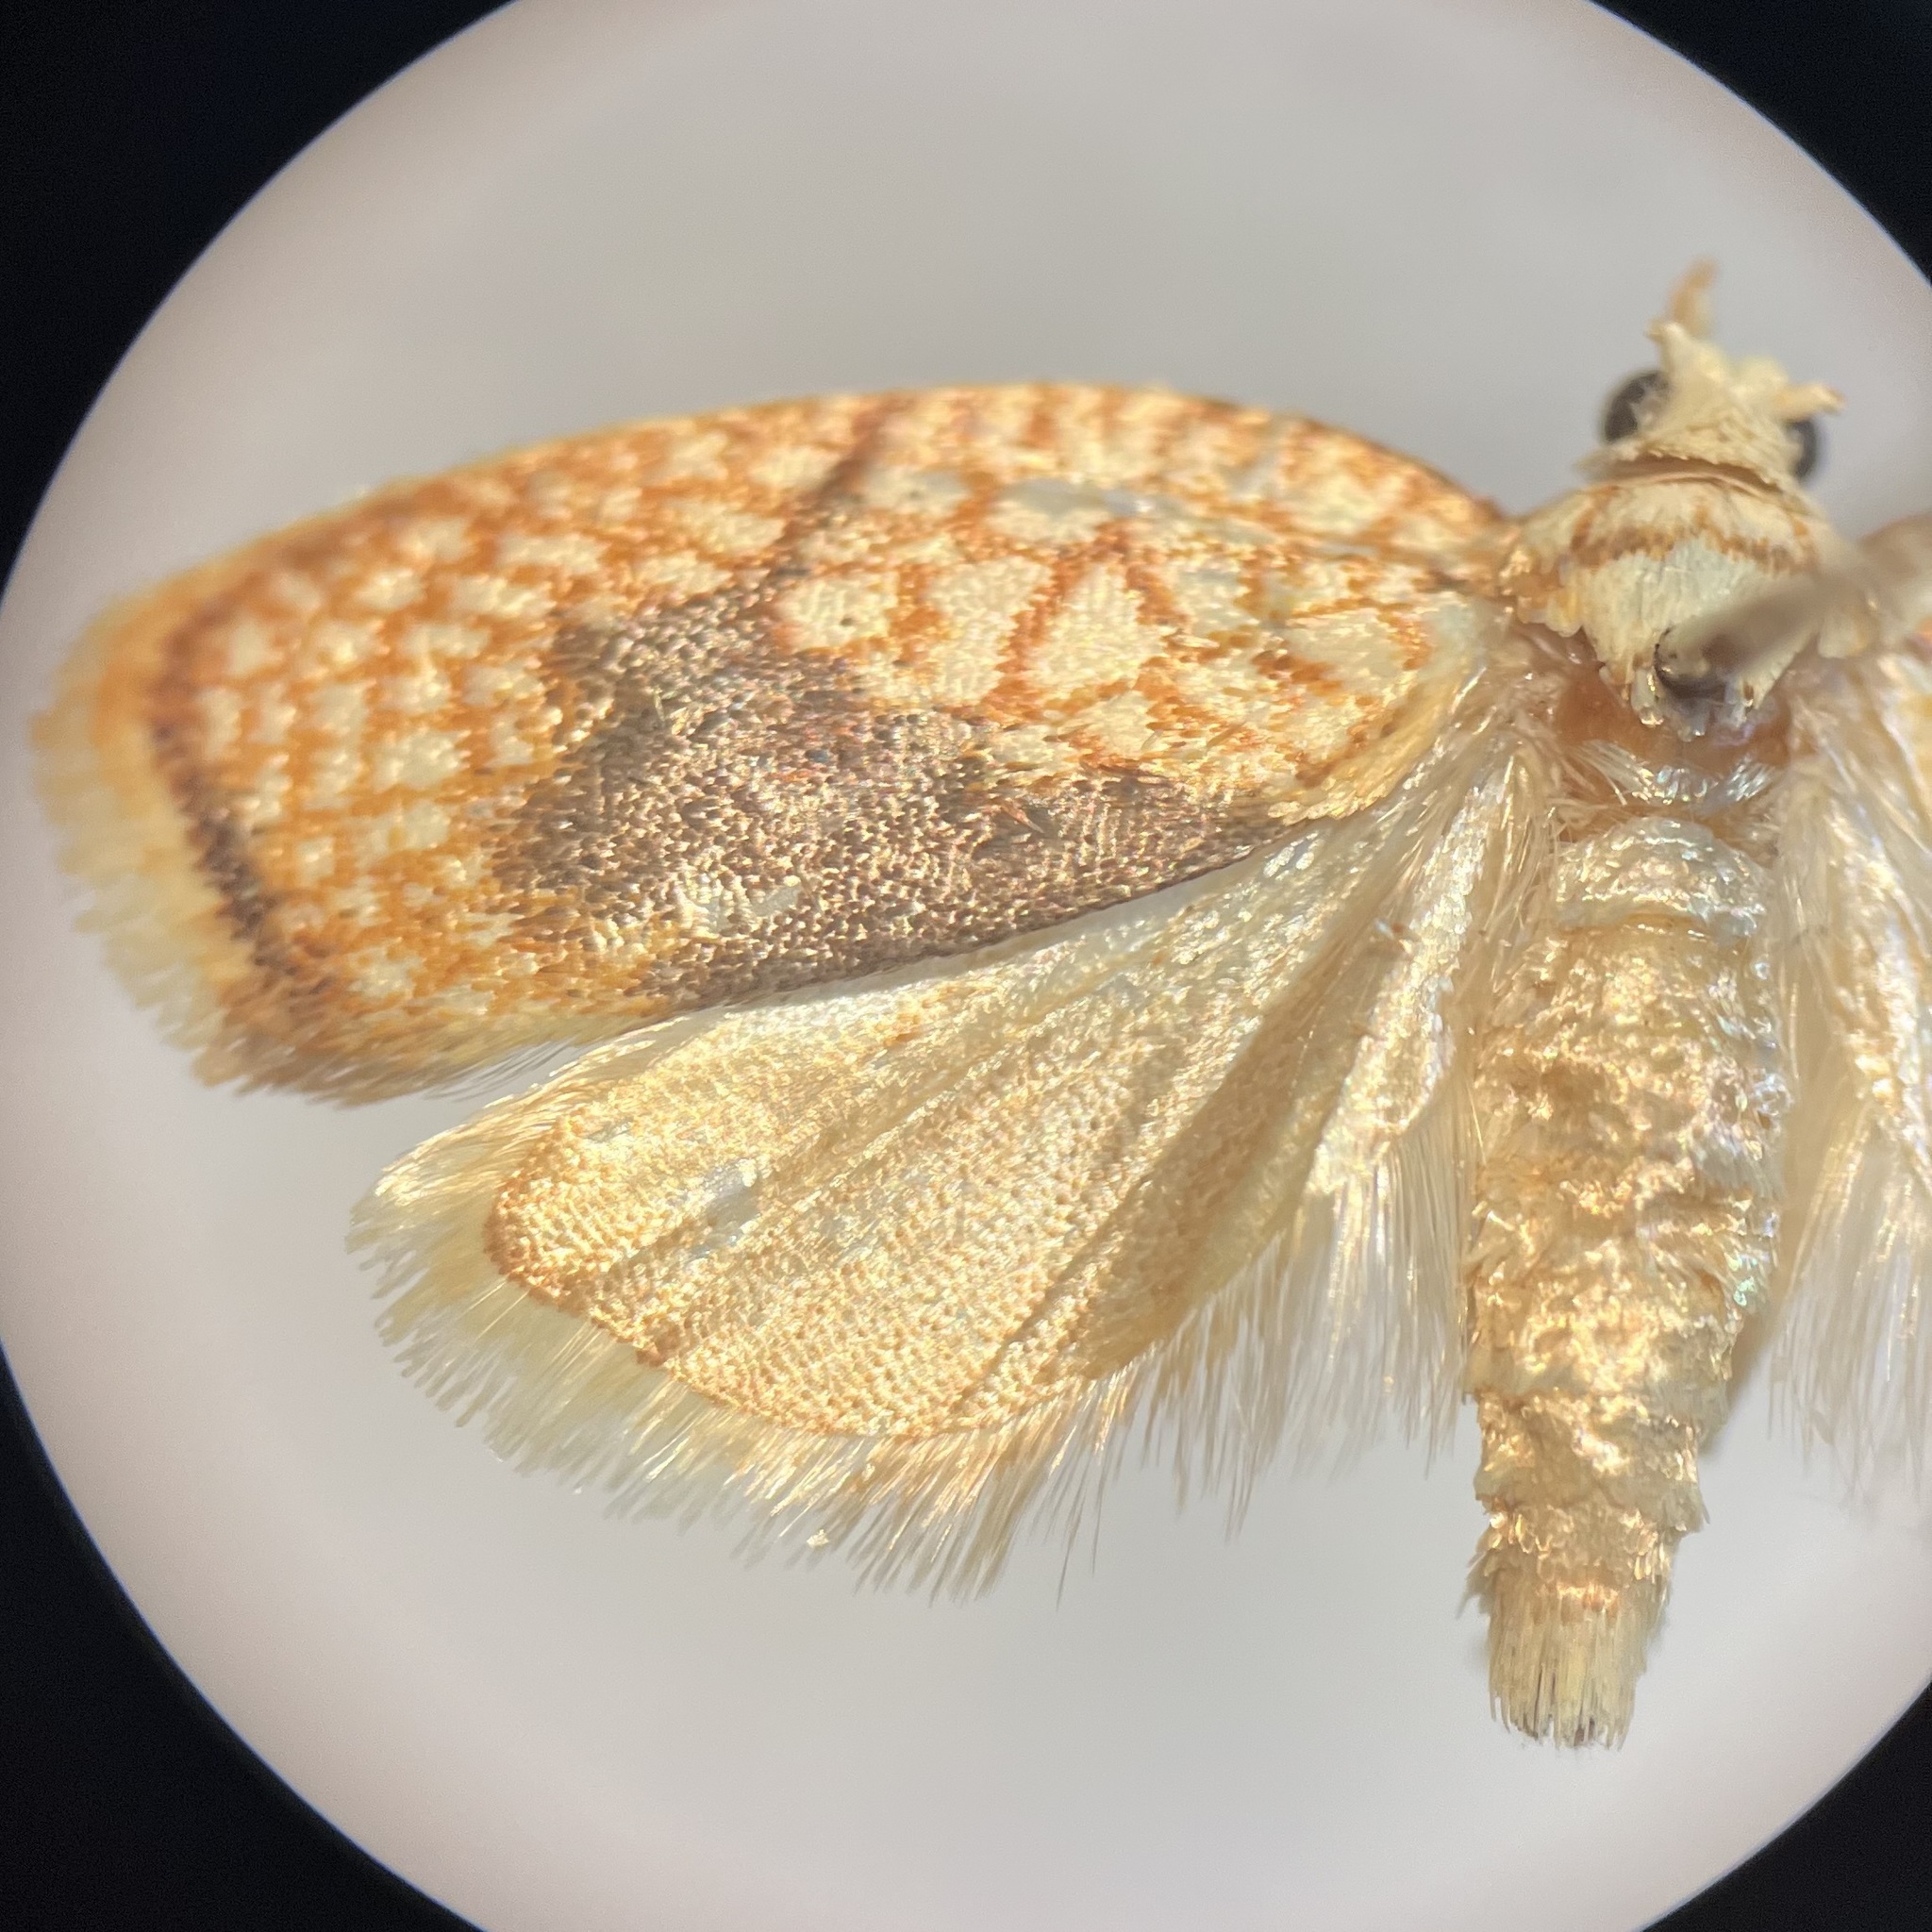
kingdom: Animalia
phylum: Arthropoda
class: Insecta
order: Lepidoptera
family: Tortricidae
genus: Acleris
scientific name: Acleris forsskaleana
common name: Maple button
